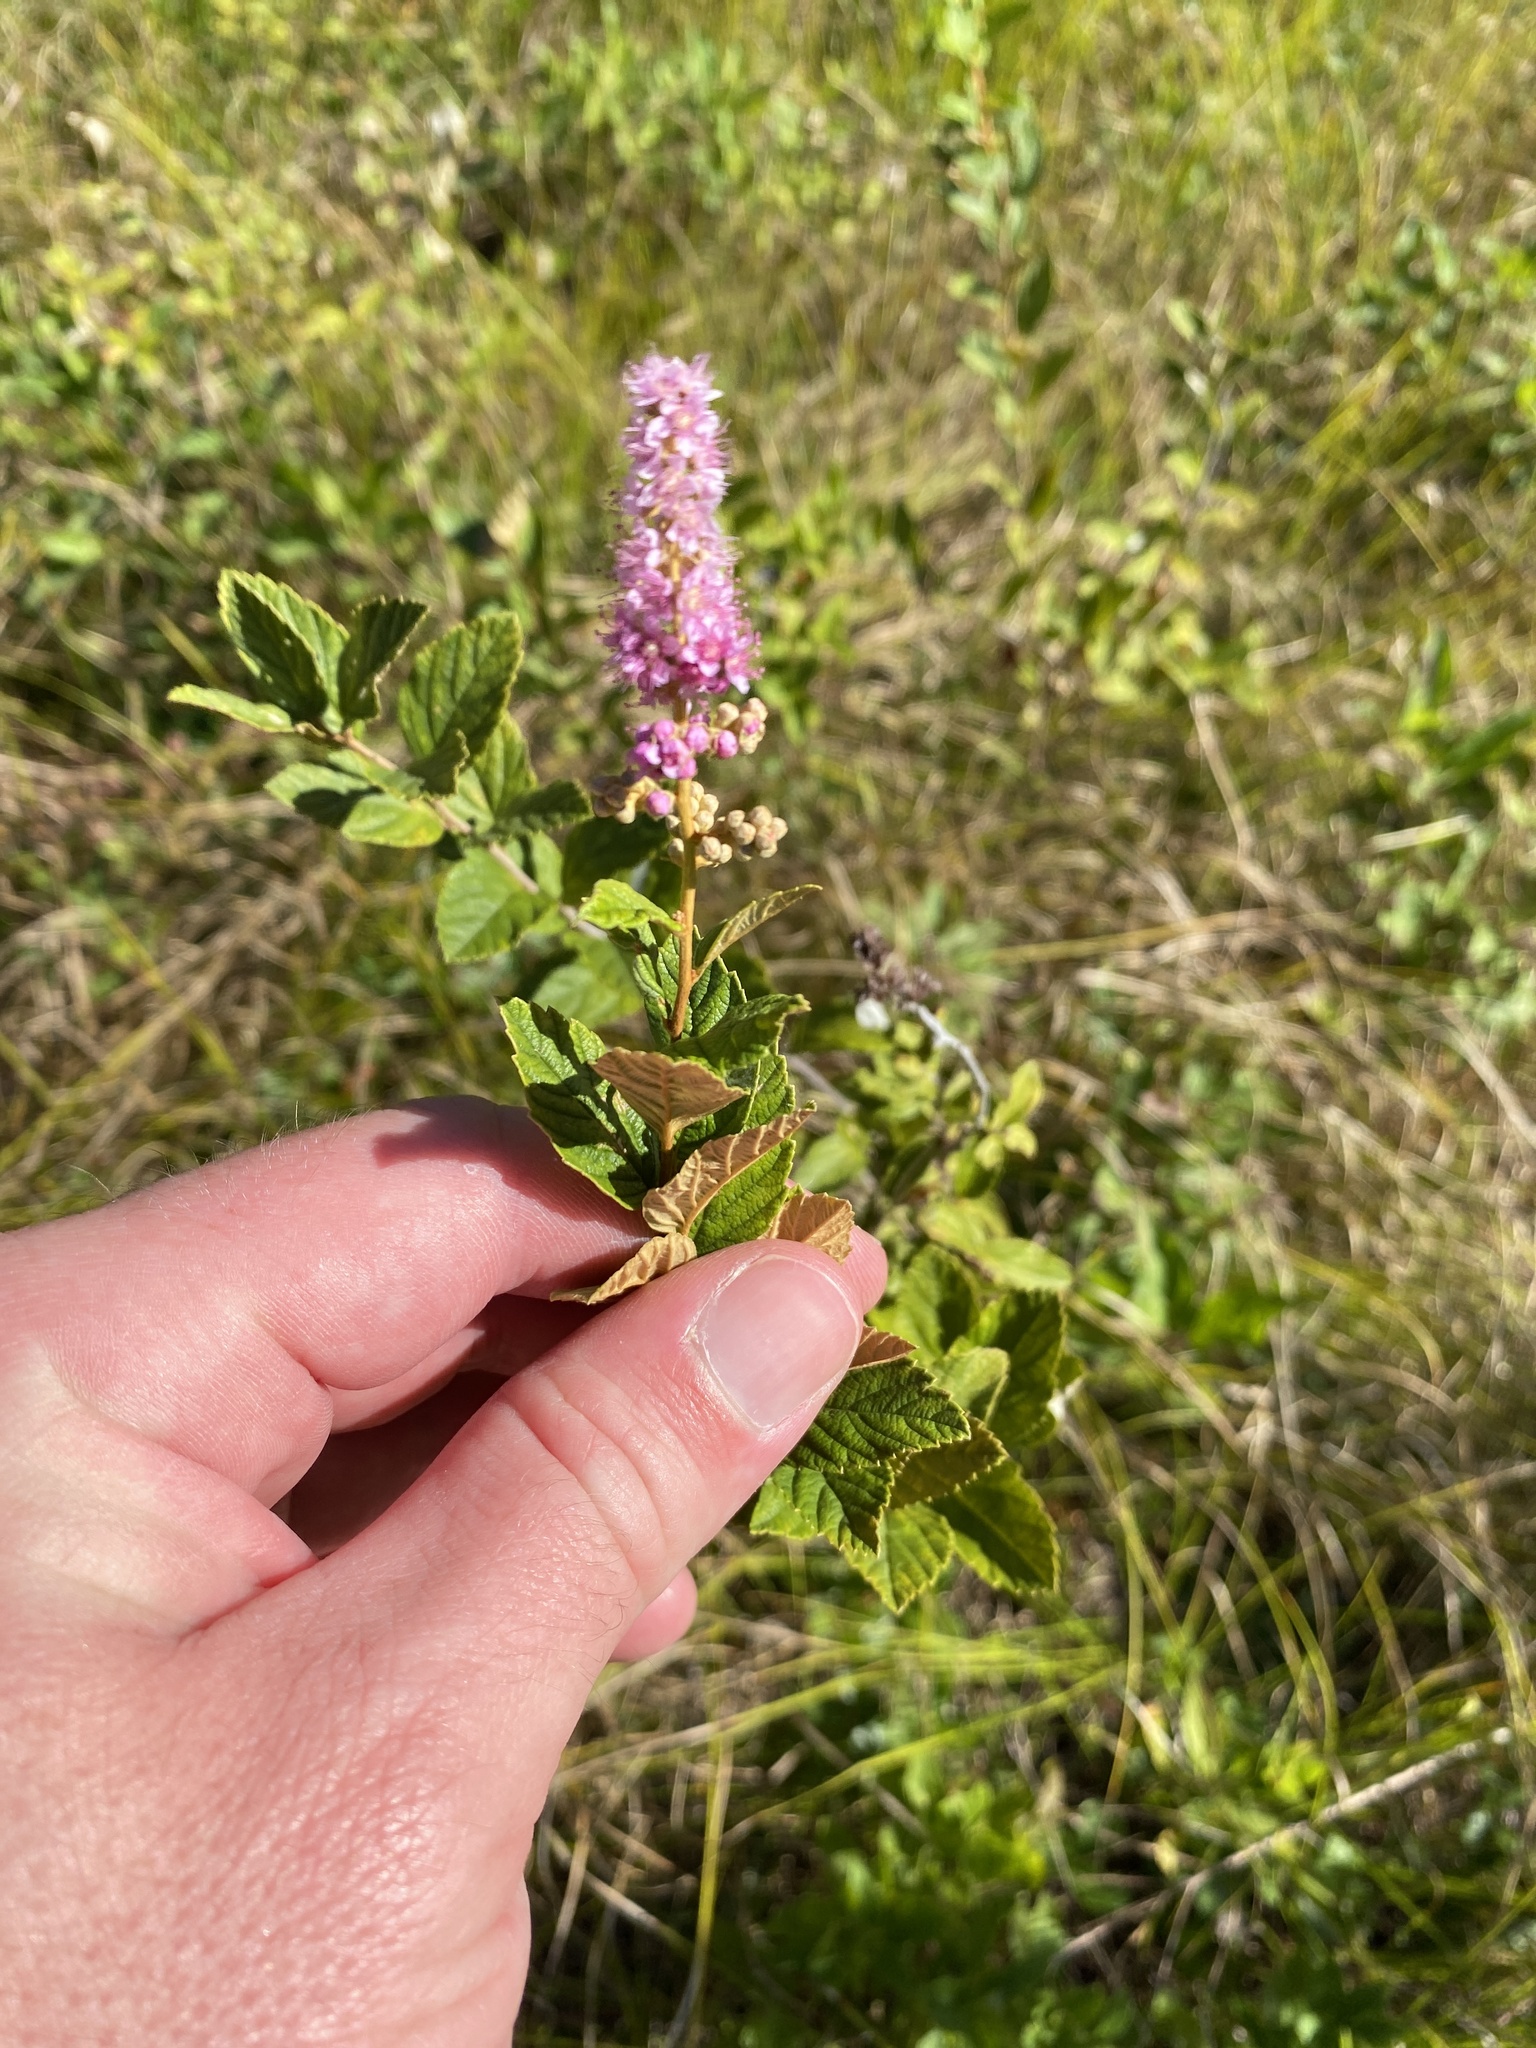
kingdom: Plantae
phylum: Tracheophyta
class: Magnoliopsida
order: Rosales
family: Rosaceae
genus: Spiraea
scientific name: Spiraea tomentosa
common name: Hardhack
